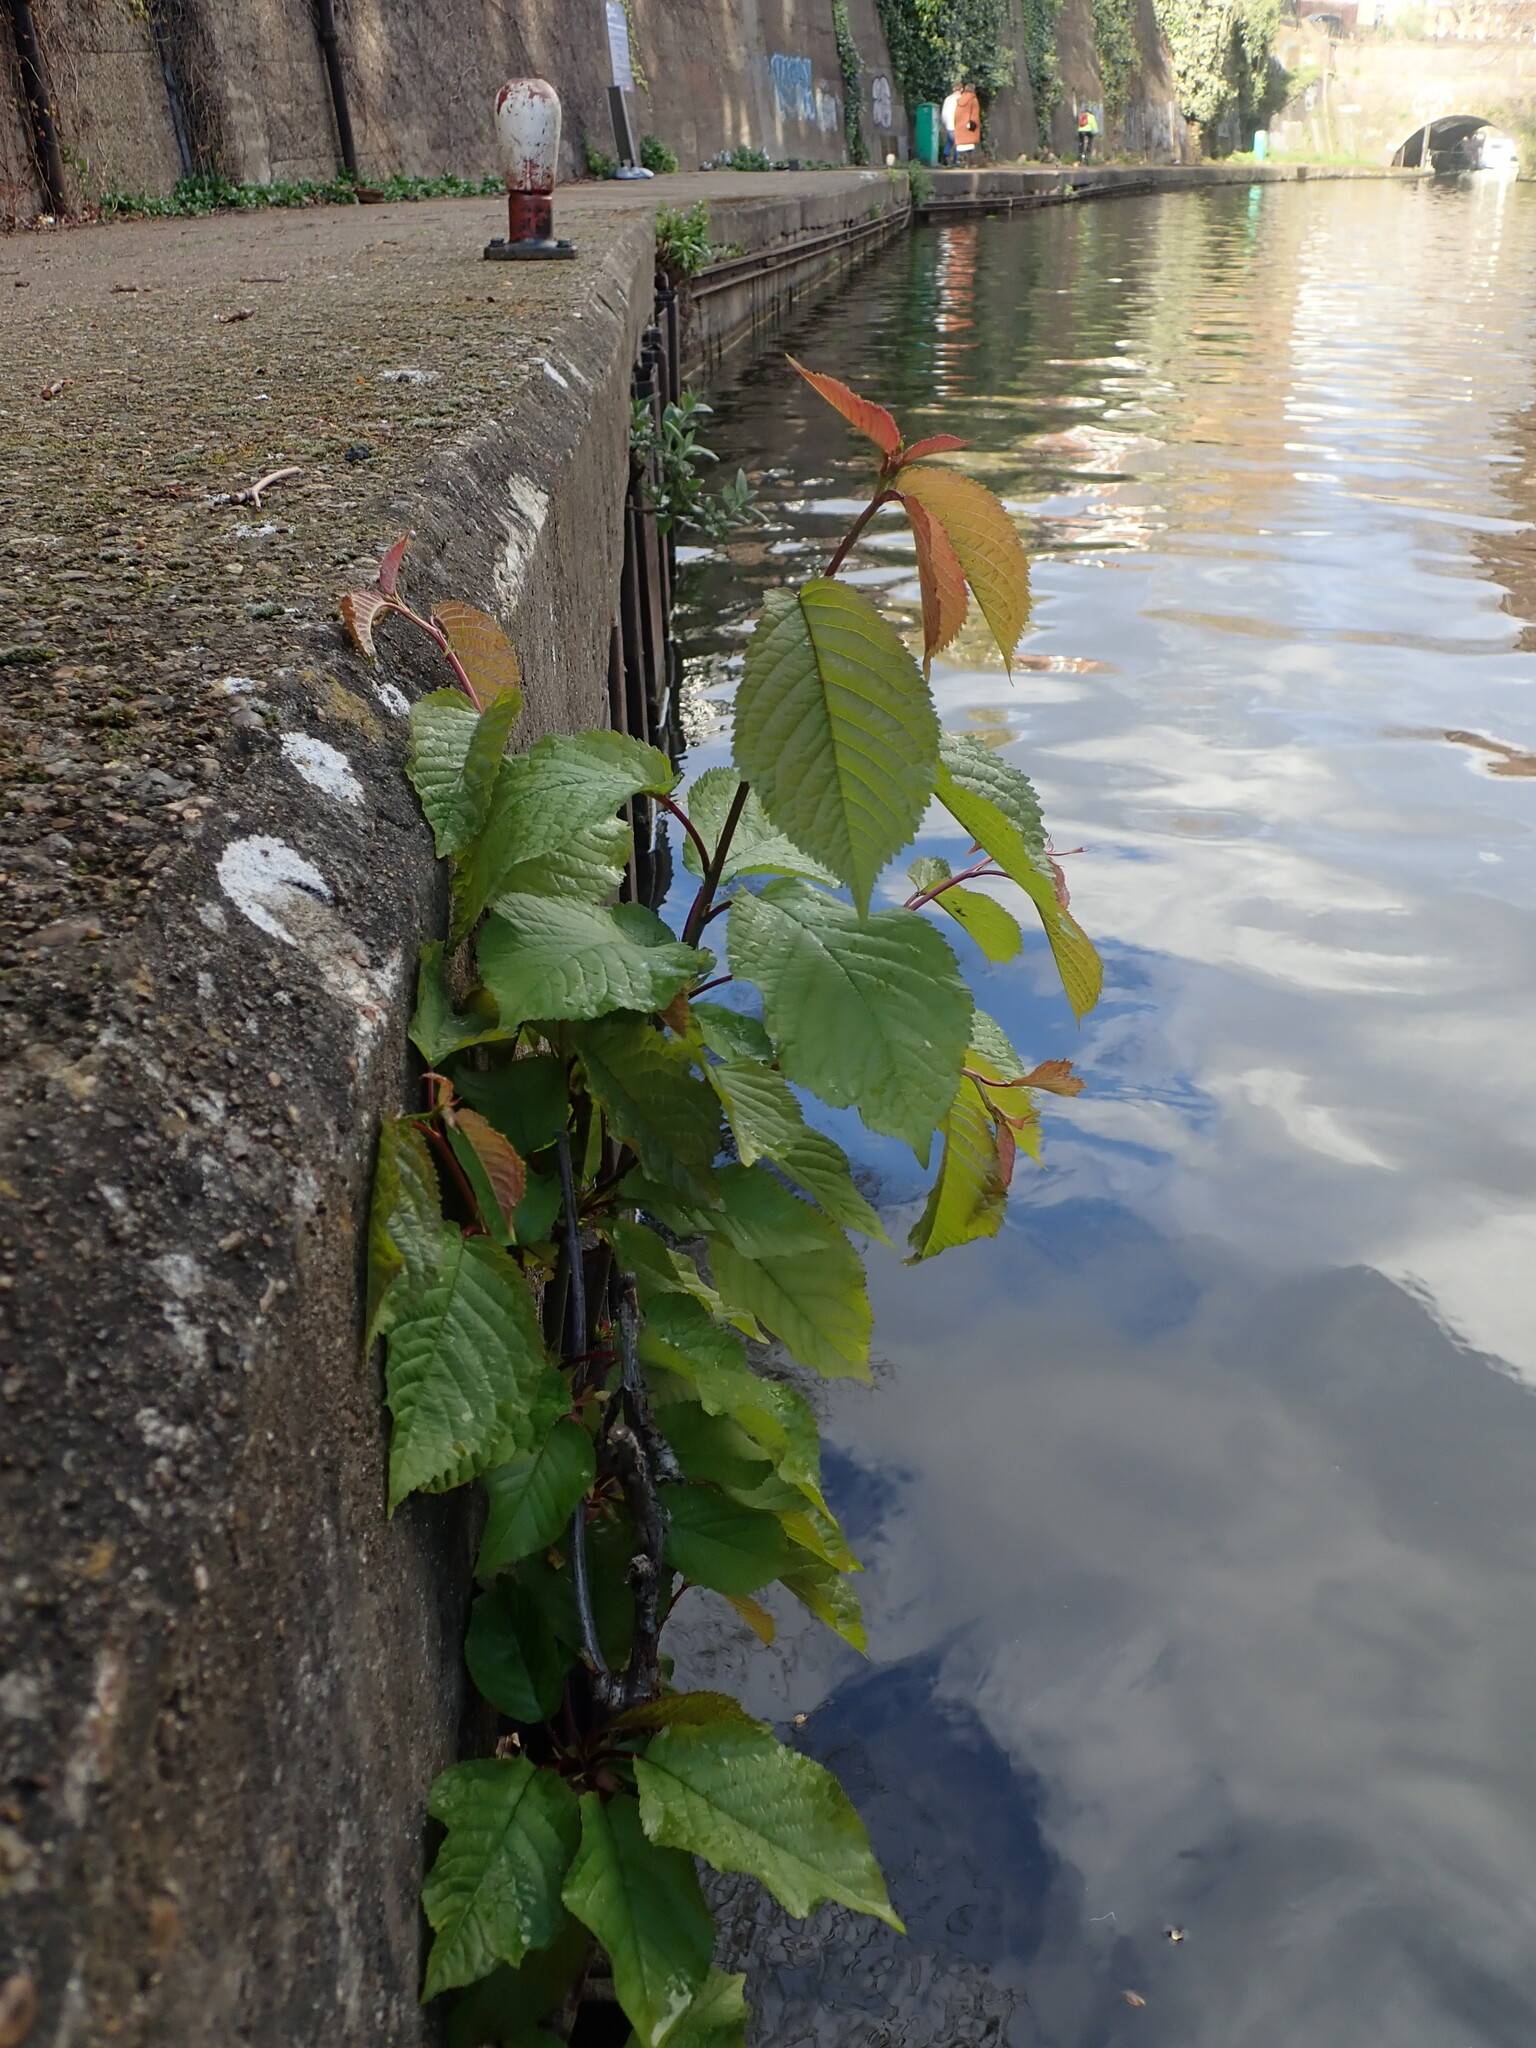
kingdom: Plantae
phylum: Tracheophyta
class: Magnoliopsida
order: Rosales
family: Rosaceae
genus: Prunus
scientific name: Prunus avium
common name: Sweet cherry
